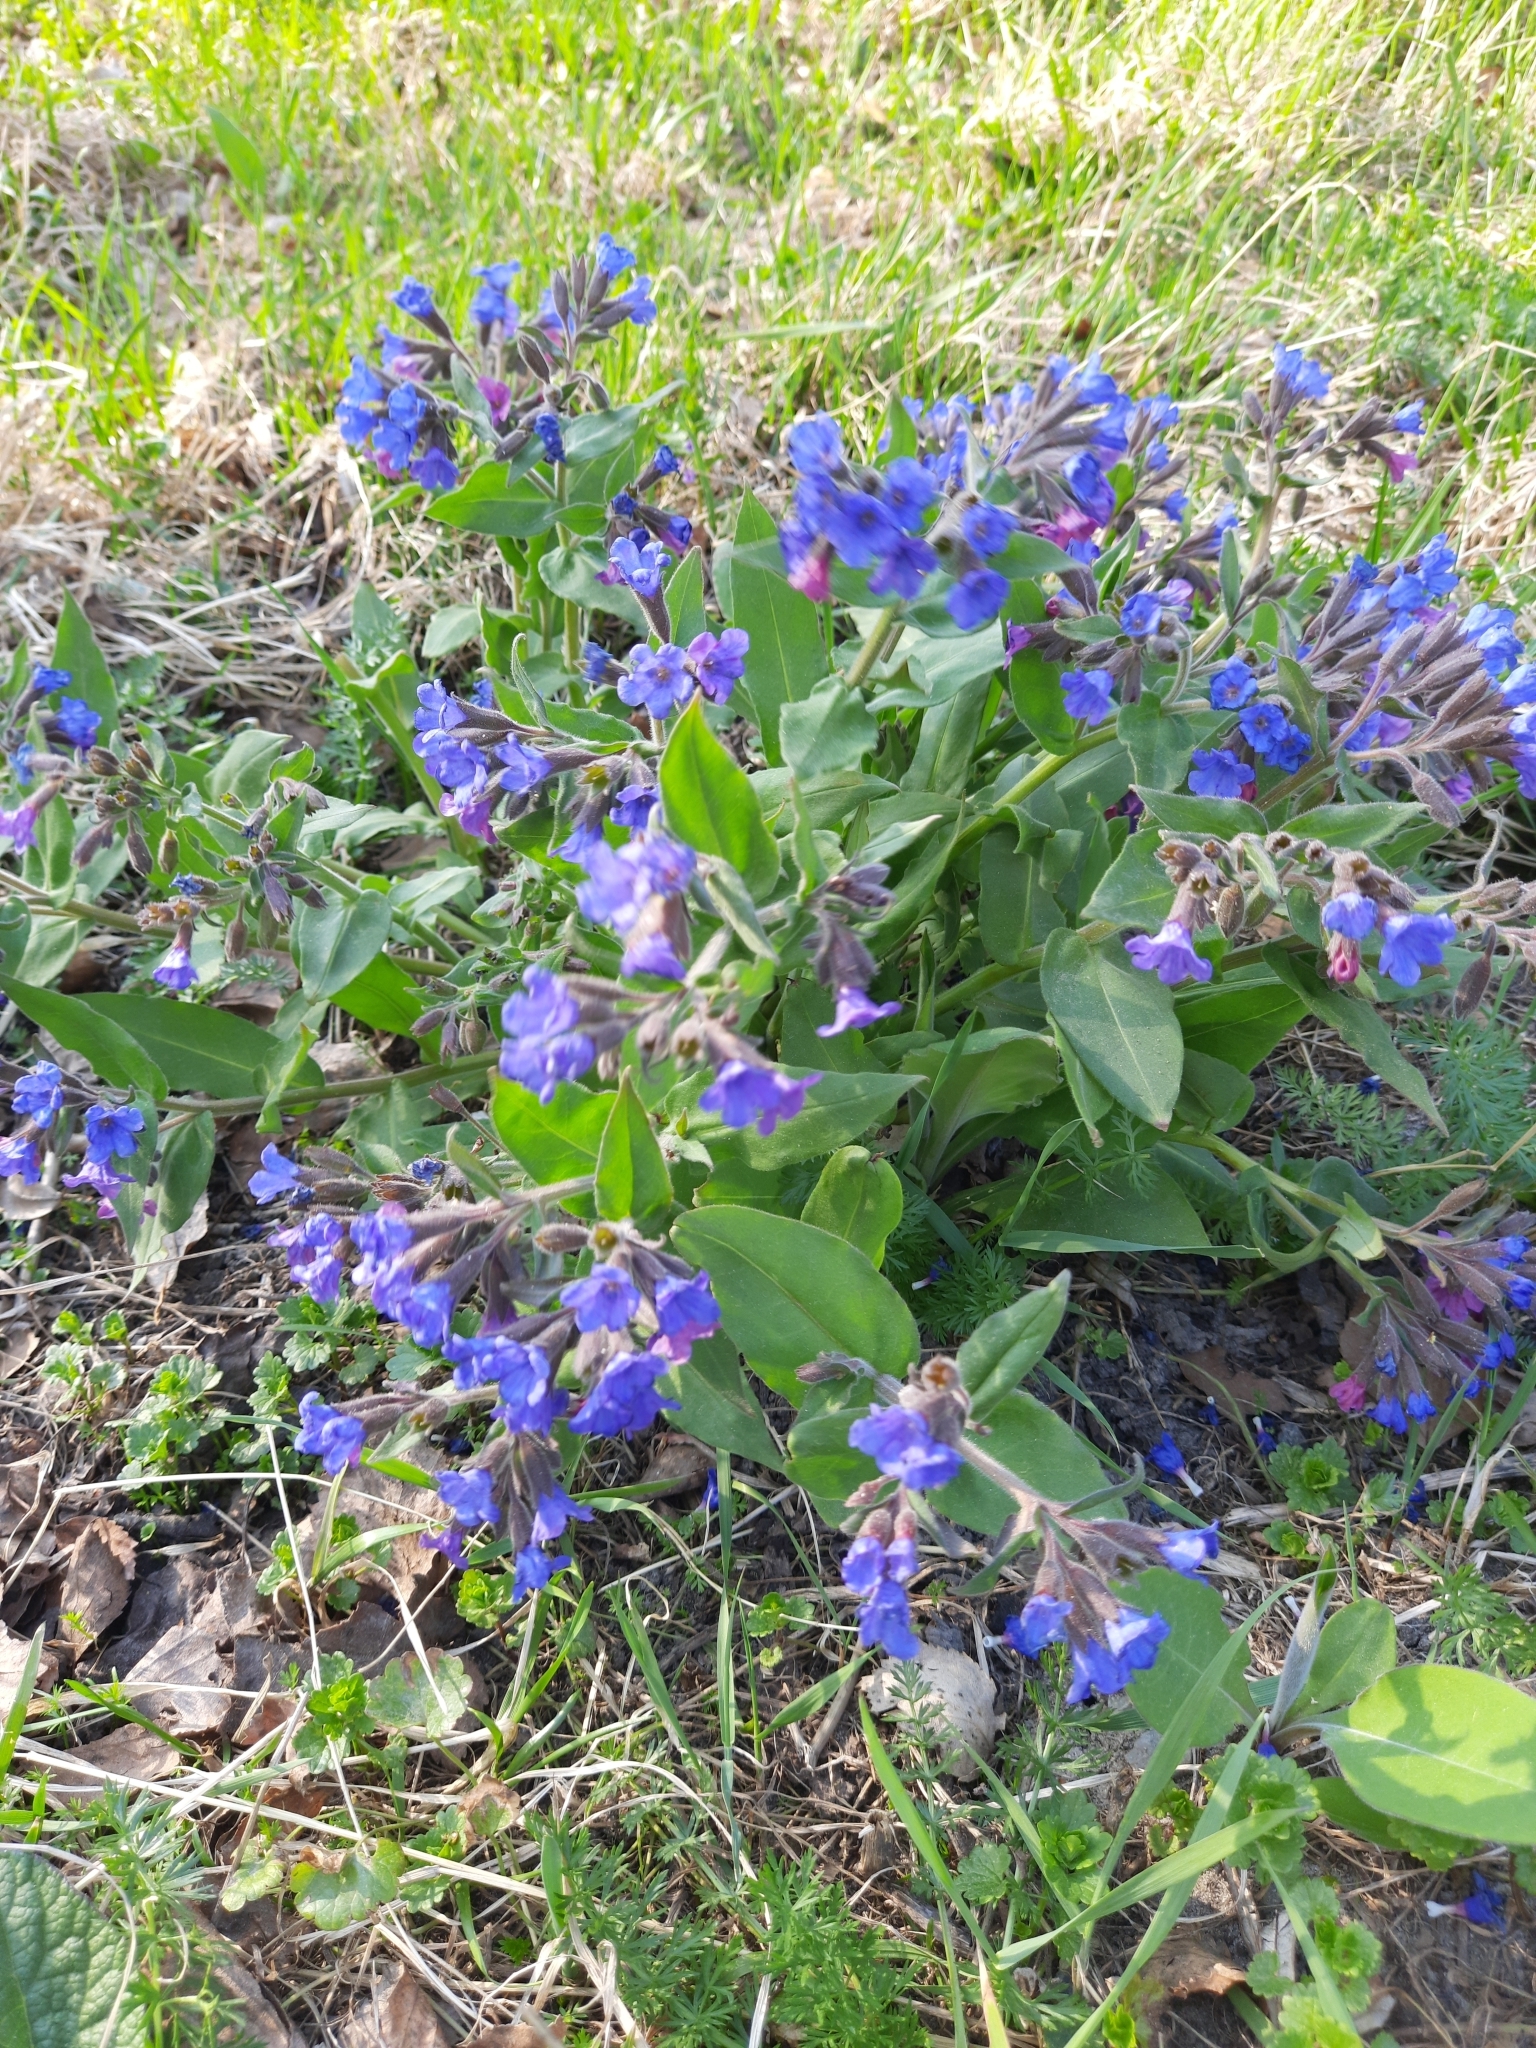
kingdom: Plantae
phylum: Tracheophyta
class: Magnoliopsida
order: Boraginales
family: Boraginaceae
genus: Pulmonaria
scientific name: Pulmonaria mollis
